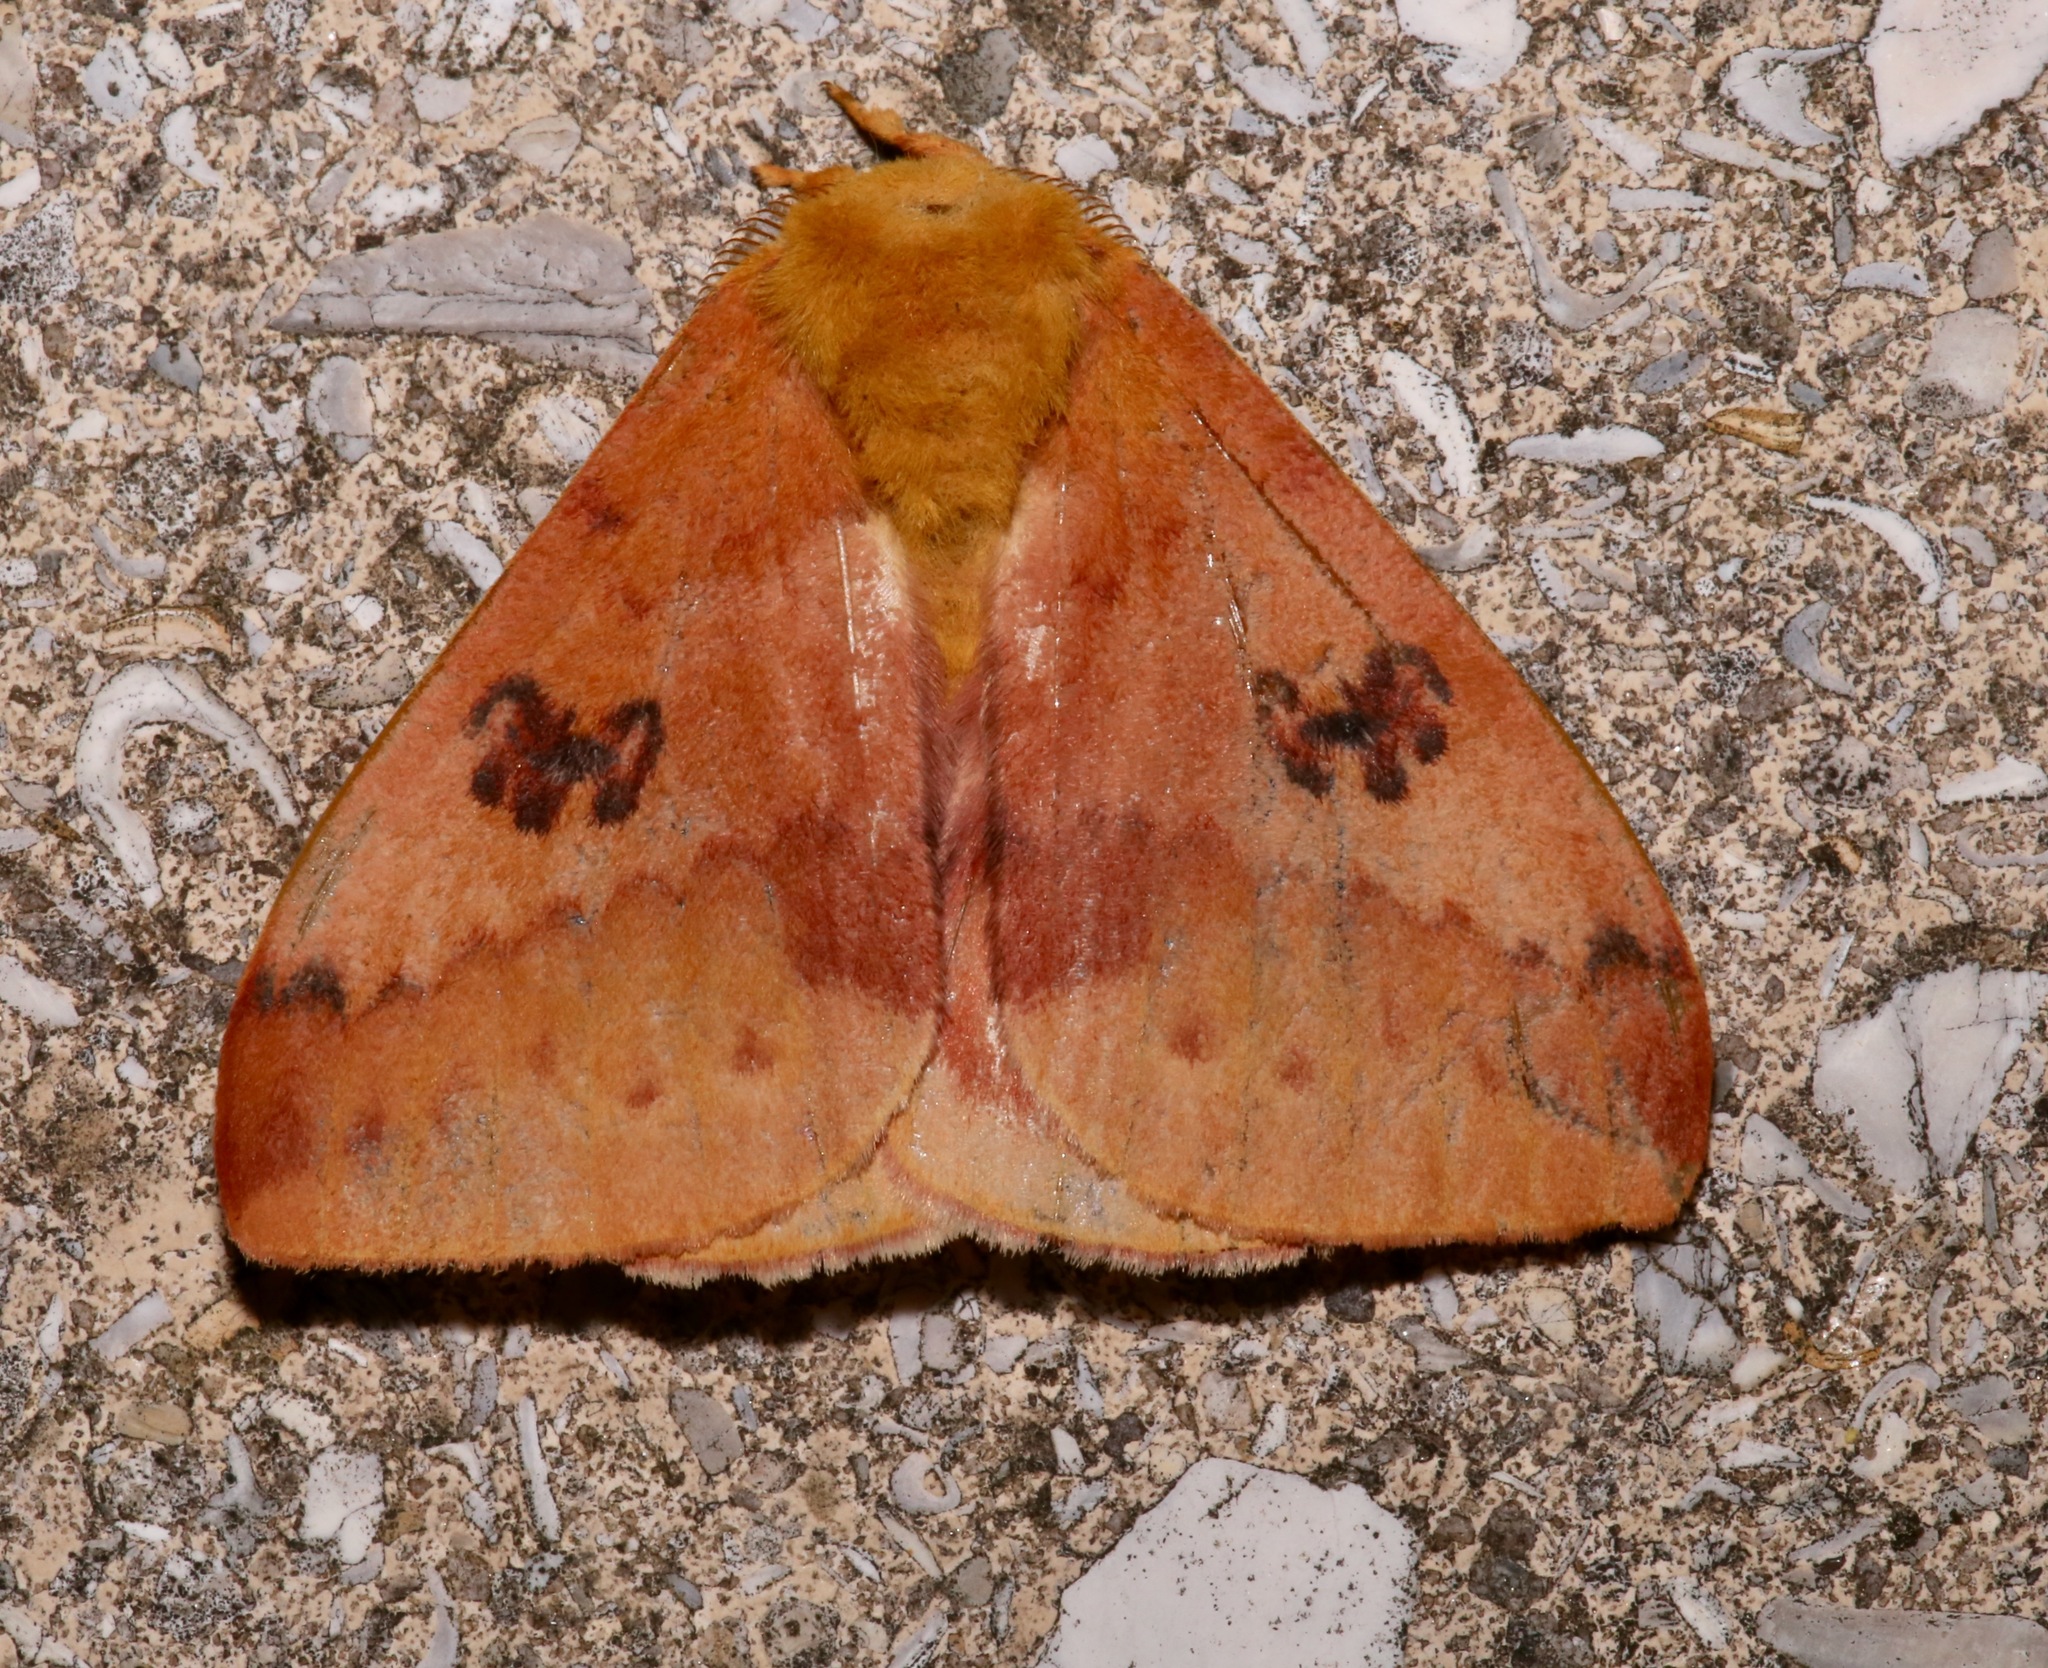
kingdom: Animalia
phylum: Arthropoda
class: Insecta
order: Lepidoptera
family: Saturniidae
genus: Automeris
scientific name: Automeris io
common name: Io moth
